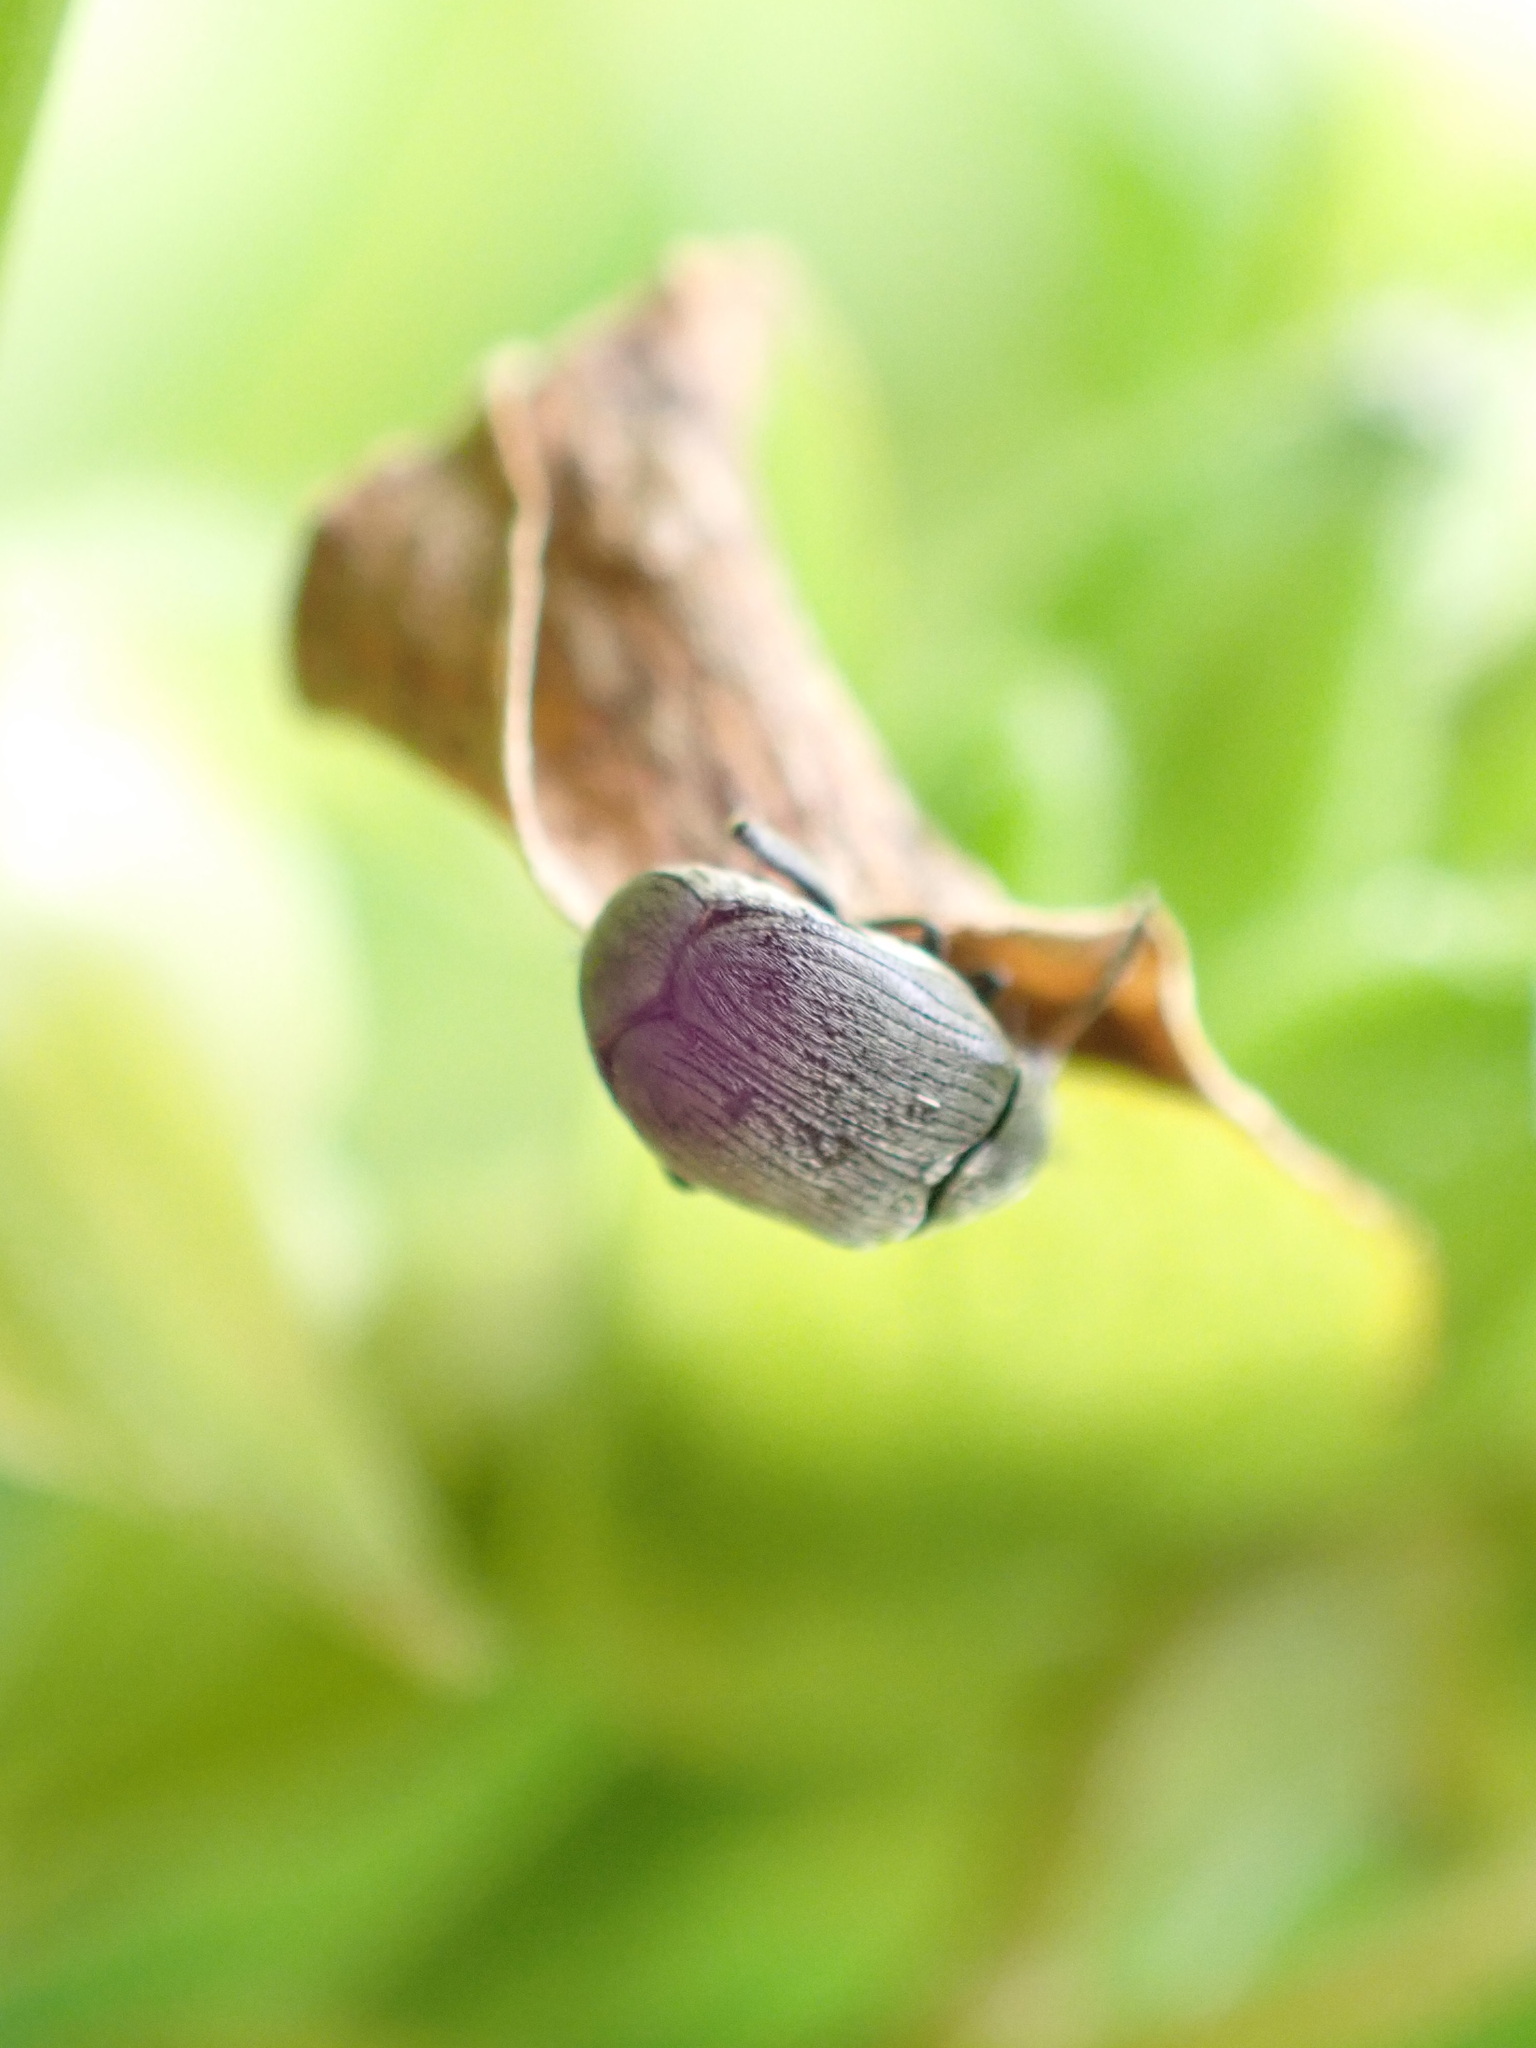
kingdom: Animalia
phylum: Arthropoda
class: Insecta
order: Coleoptera
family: Chrysomelidae
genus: Bruchidius
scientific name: Bruchidius villosus
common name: Scotch broom bruchid
